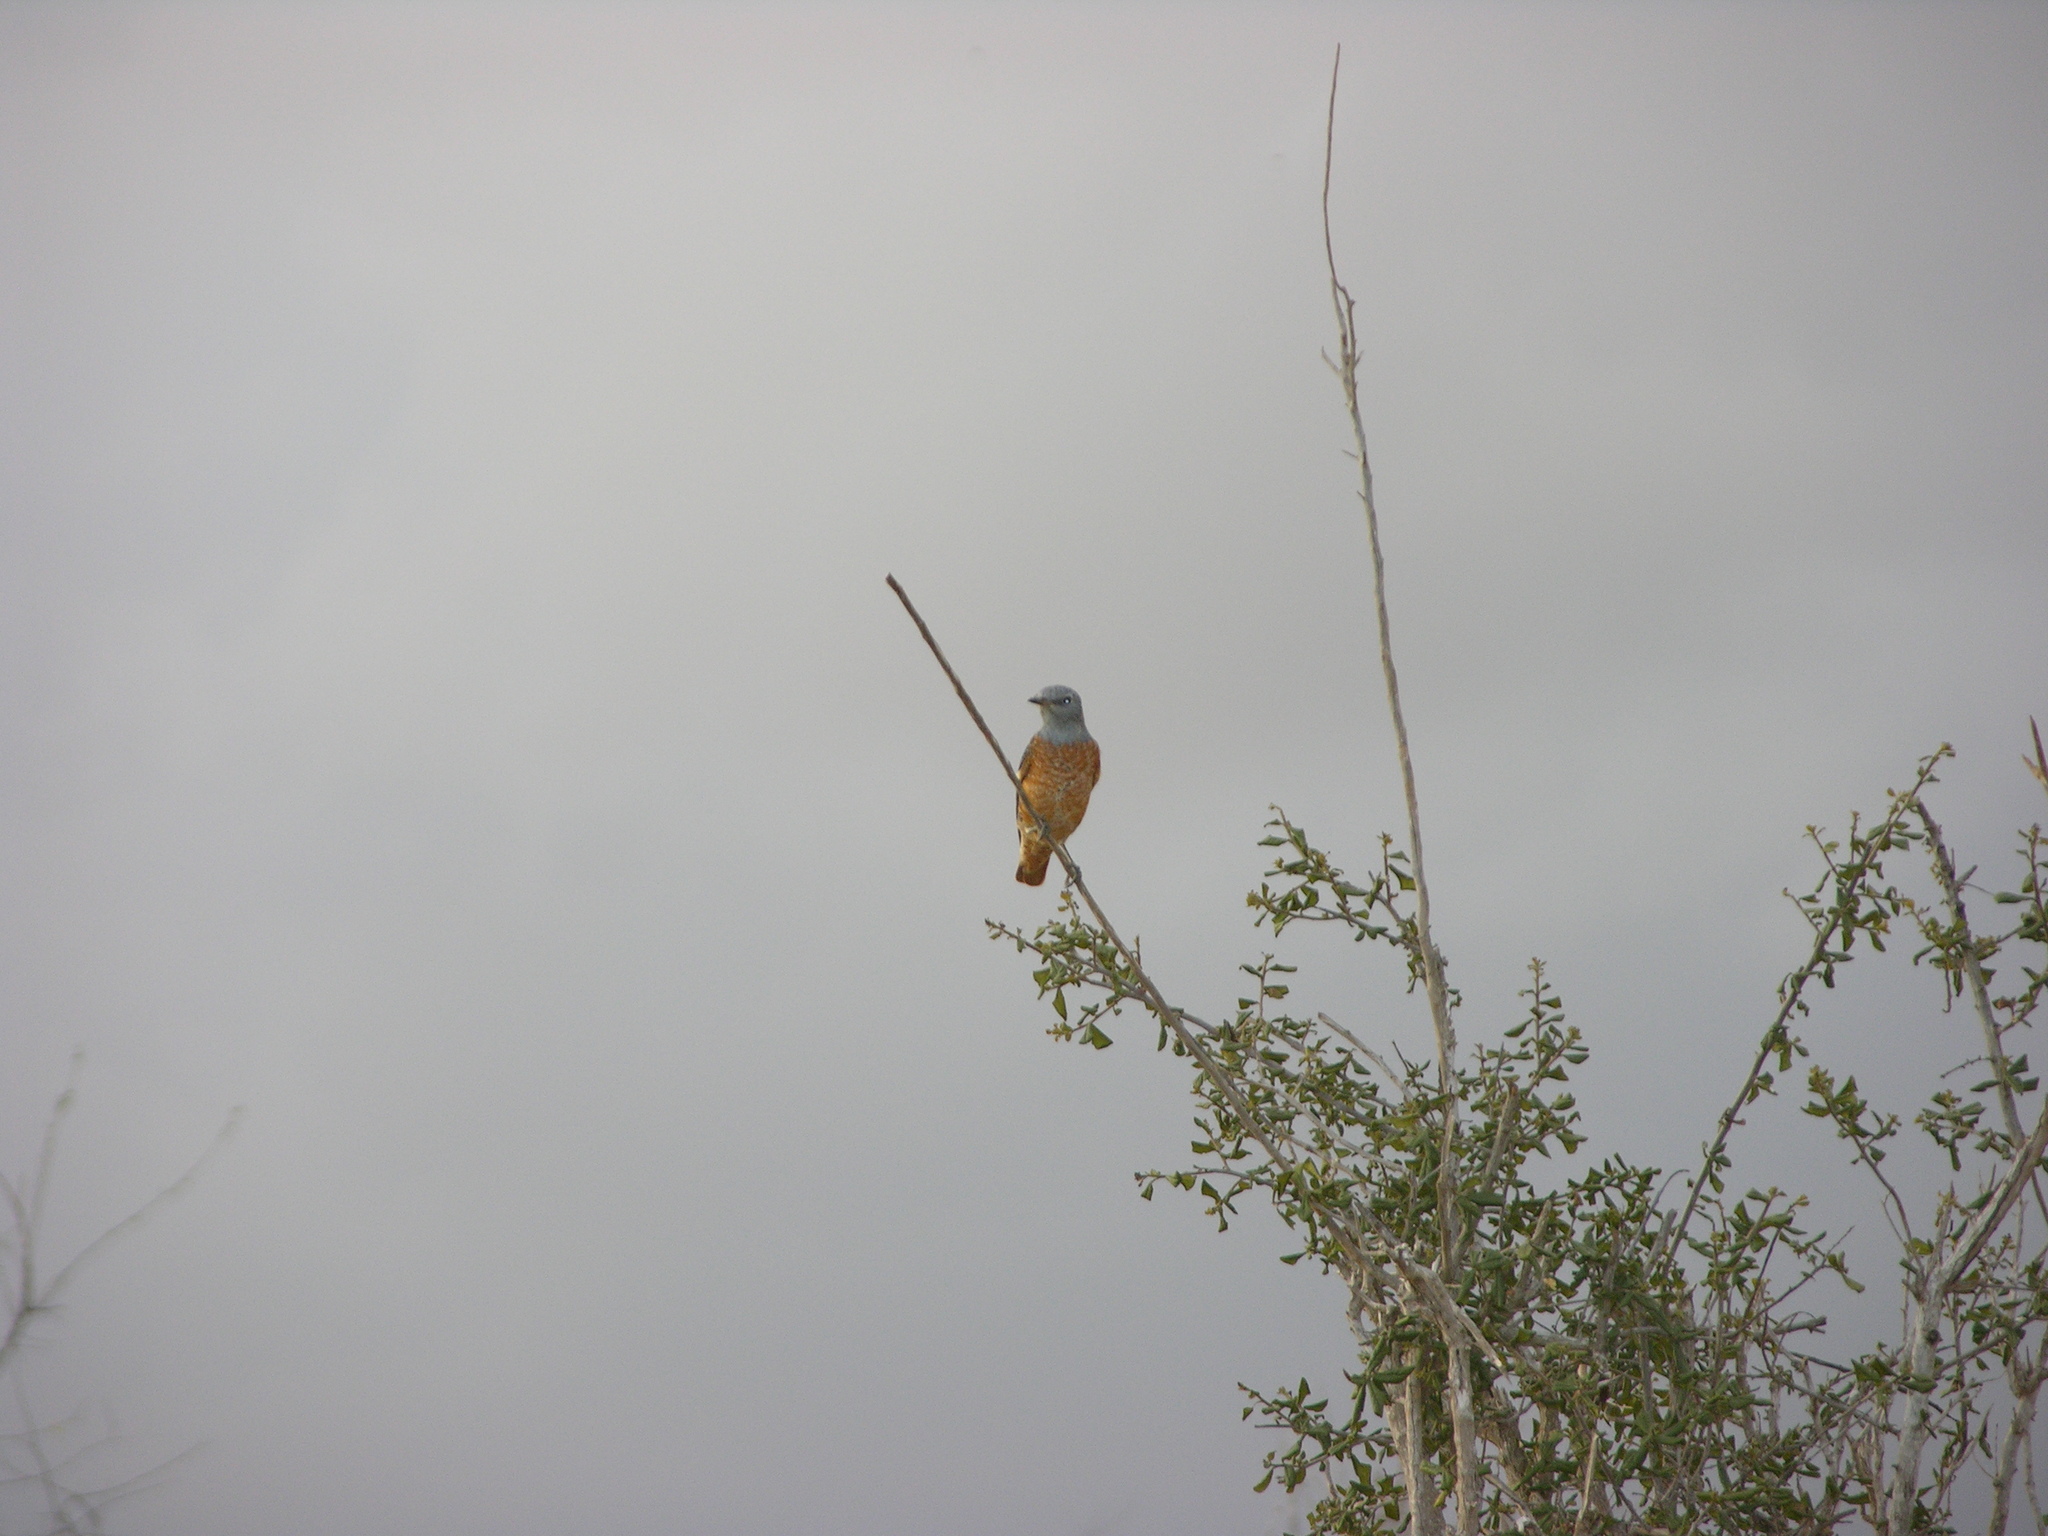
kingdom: Animalia
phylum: Chordata
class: Aves
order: Passeriformes
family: Muscicapidae
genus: Monticola
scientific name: Monticola saxatilis
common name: Rufous-tailed rock thrush
